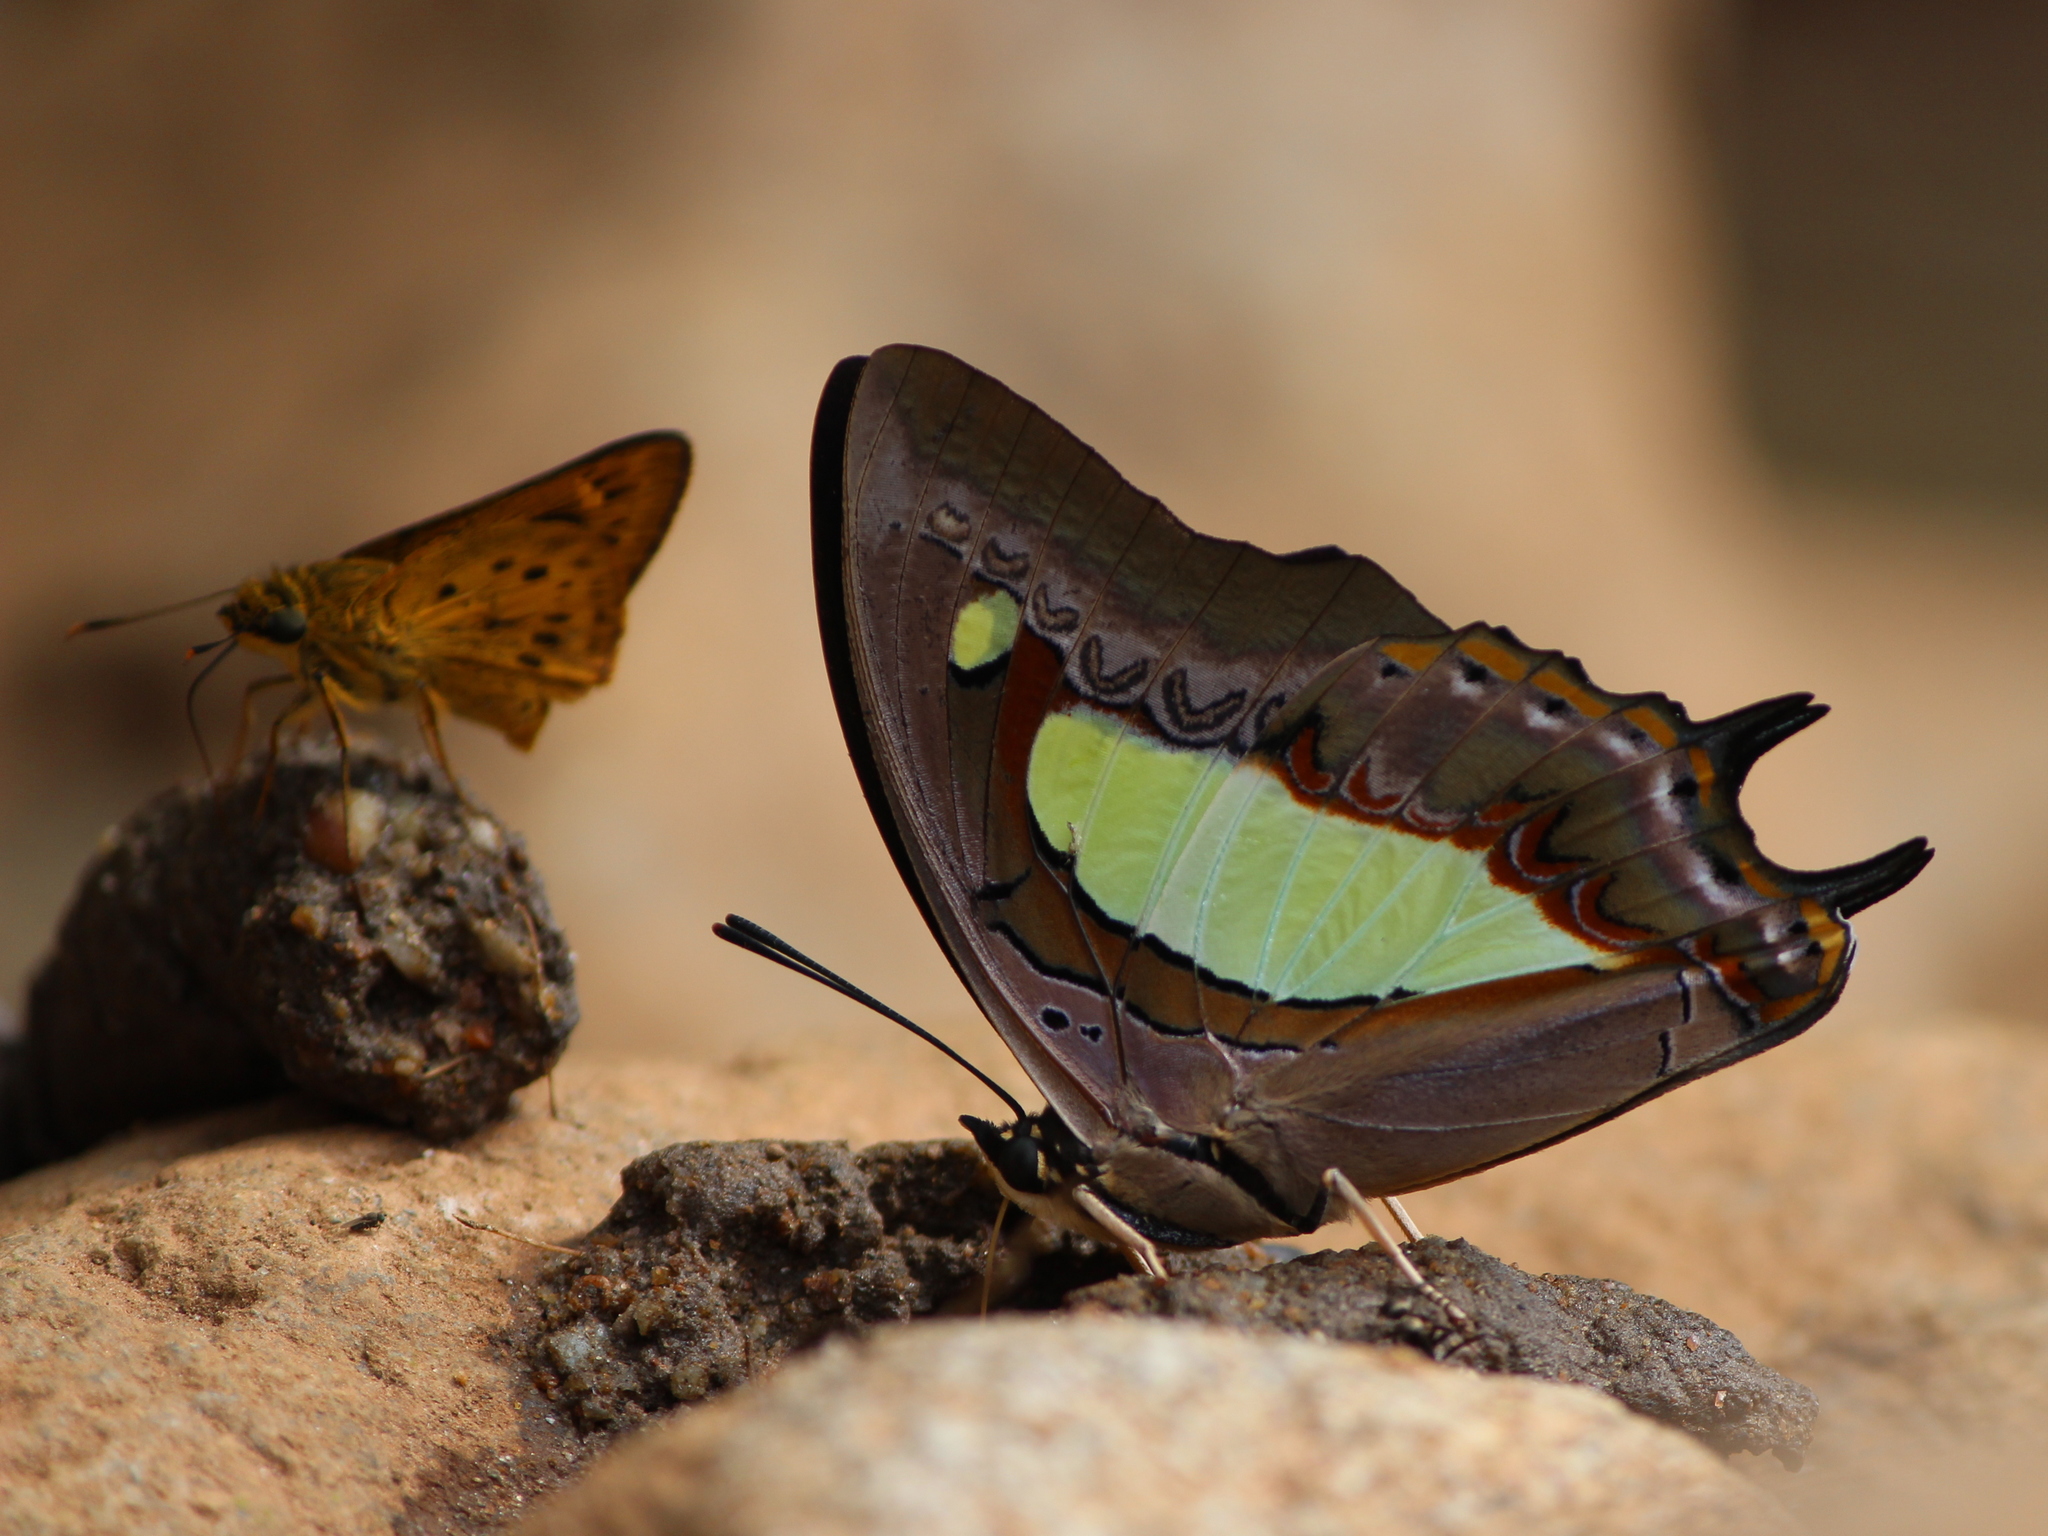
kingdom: Animalia
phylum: Arthropoda
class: Insecta
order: Lepidoptera
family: Nymphalidae
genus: Polyura
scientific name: Polyura
